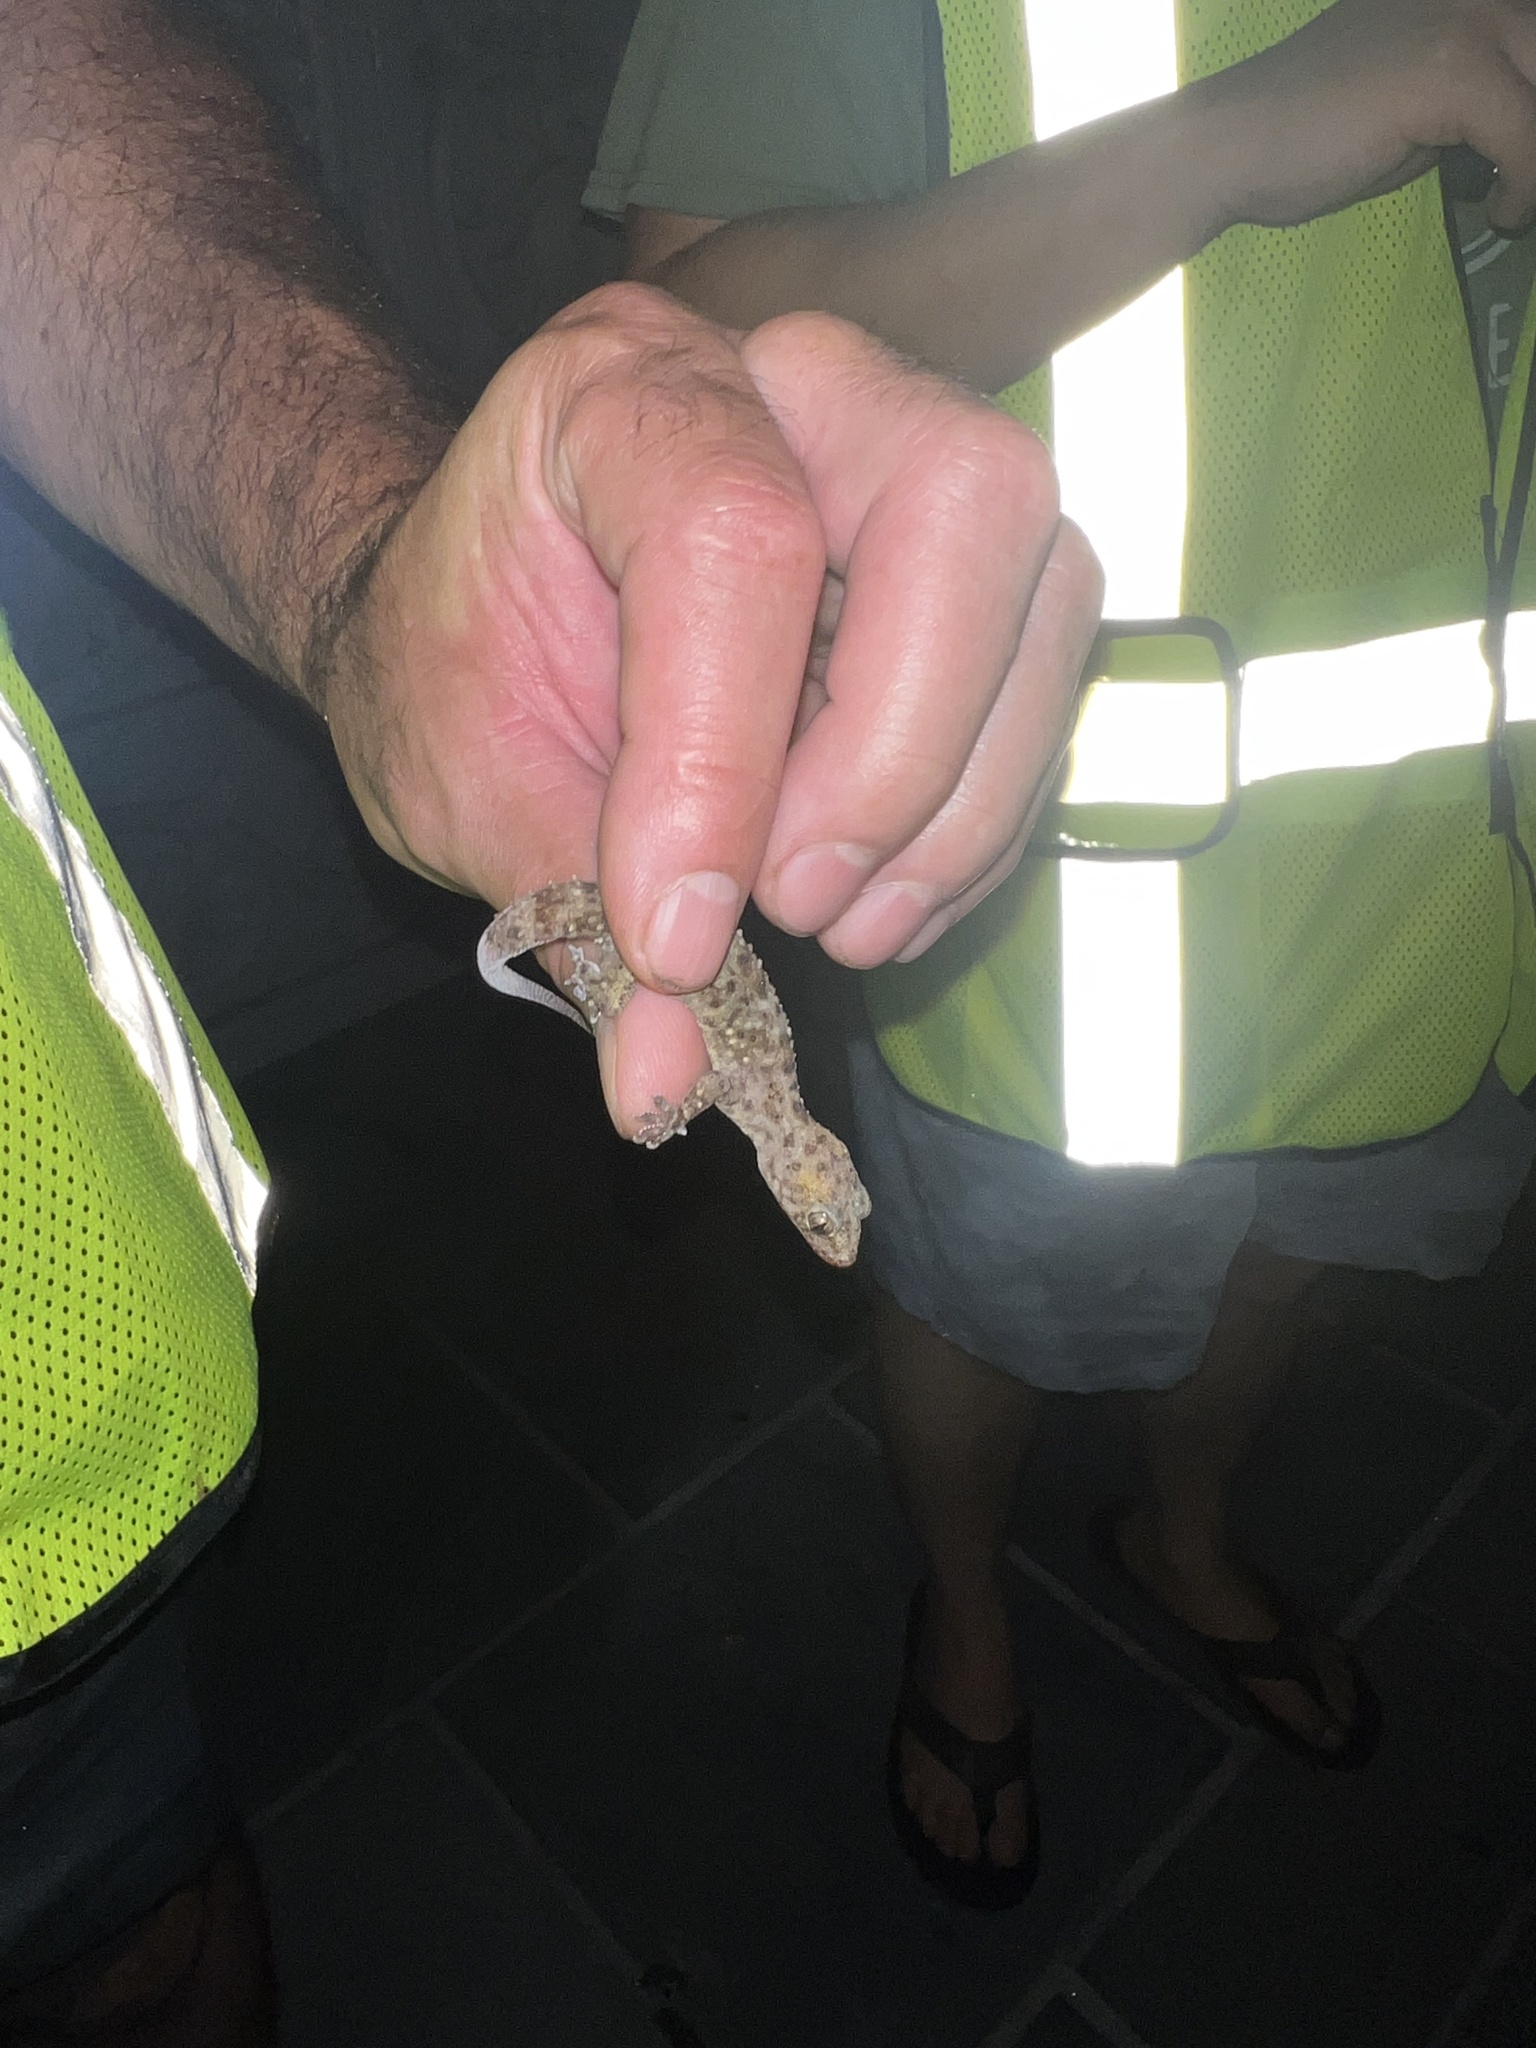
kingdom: Animalia
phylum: Chordata
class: Squamata
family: Gekkonidae
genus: Hemidactylus
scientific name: Hemidactylus turcicus
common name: Turkish gecko
